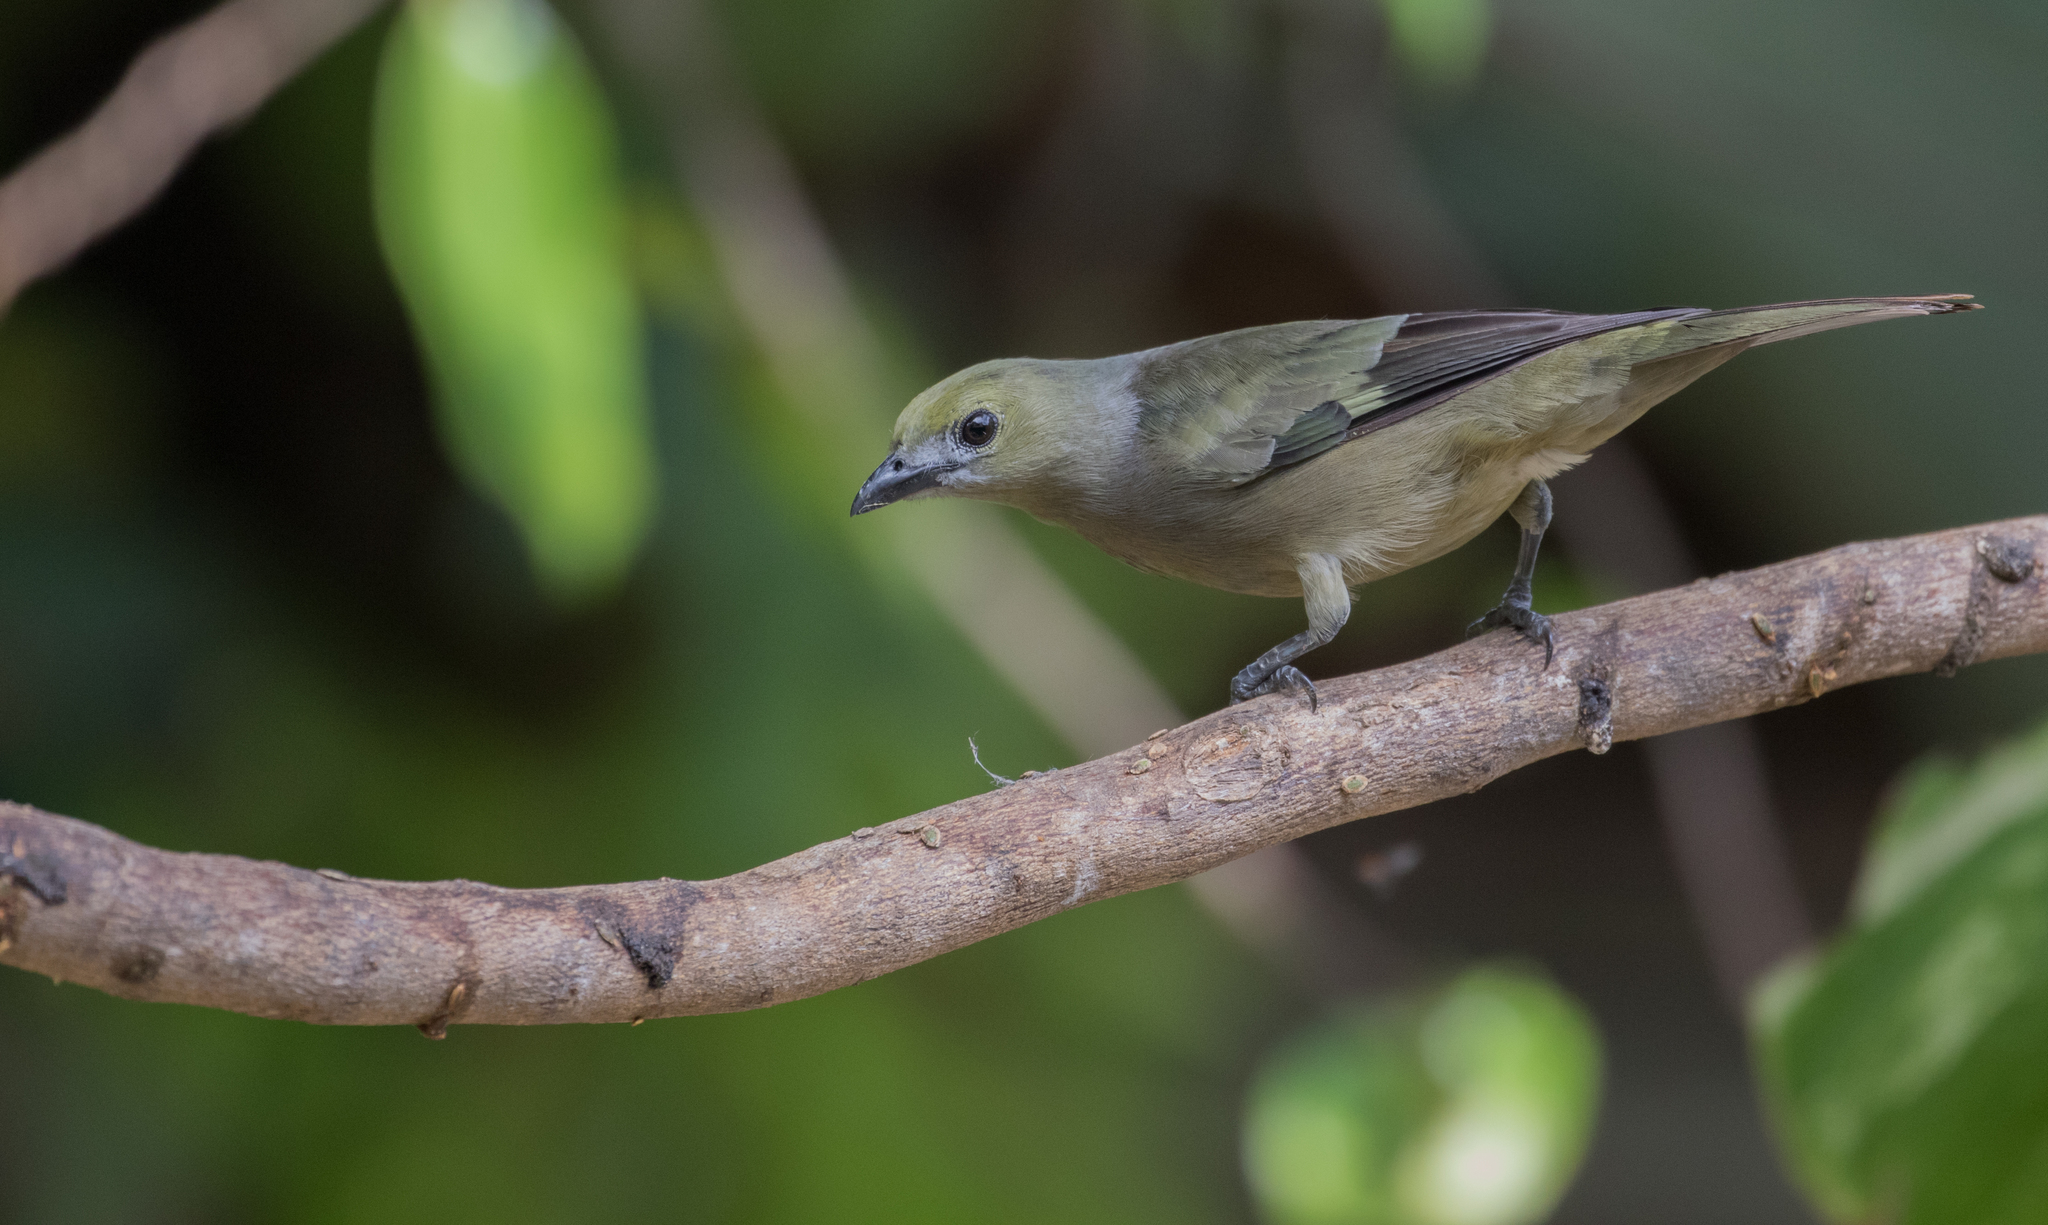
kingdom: Animalia
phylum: Chordata
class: Aves
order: Passeriformes
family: Thraupidae
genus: Thraupis
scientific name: Thraupis palmarum
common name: Palm tanager
